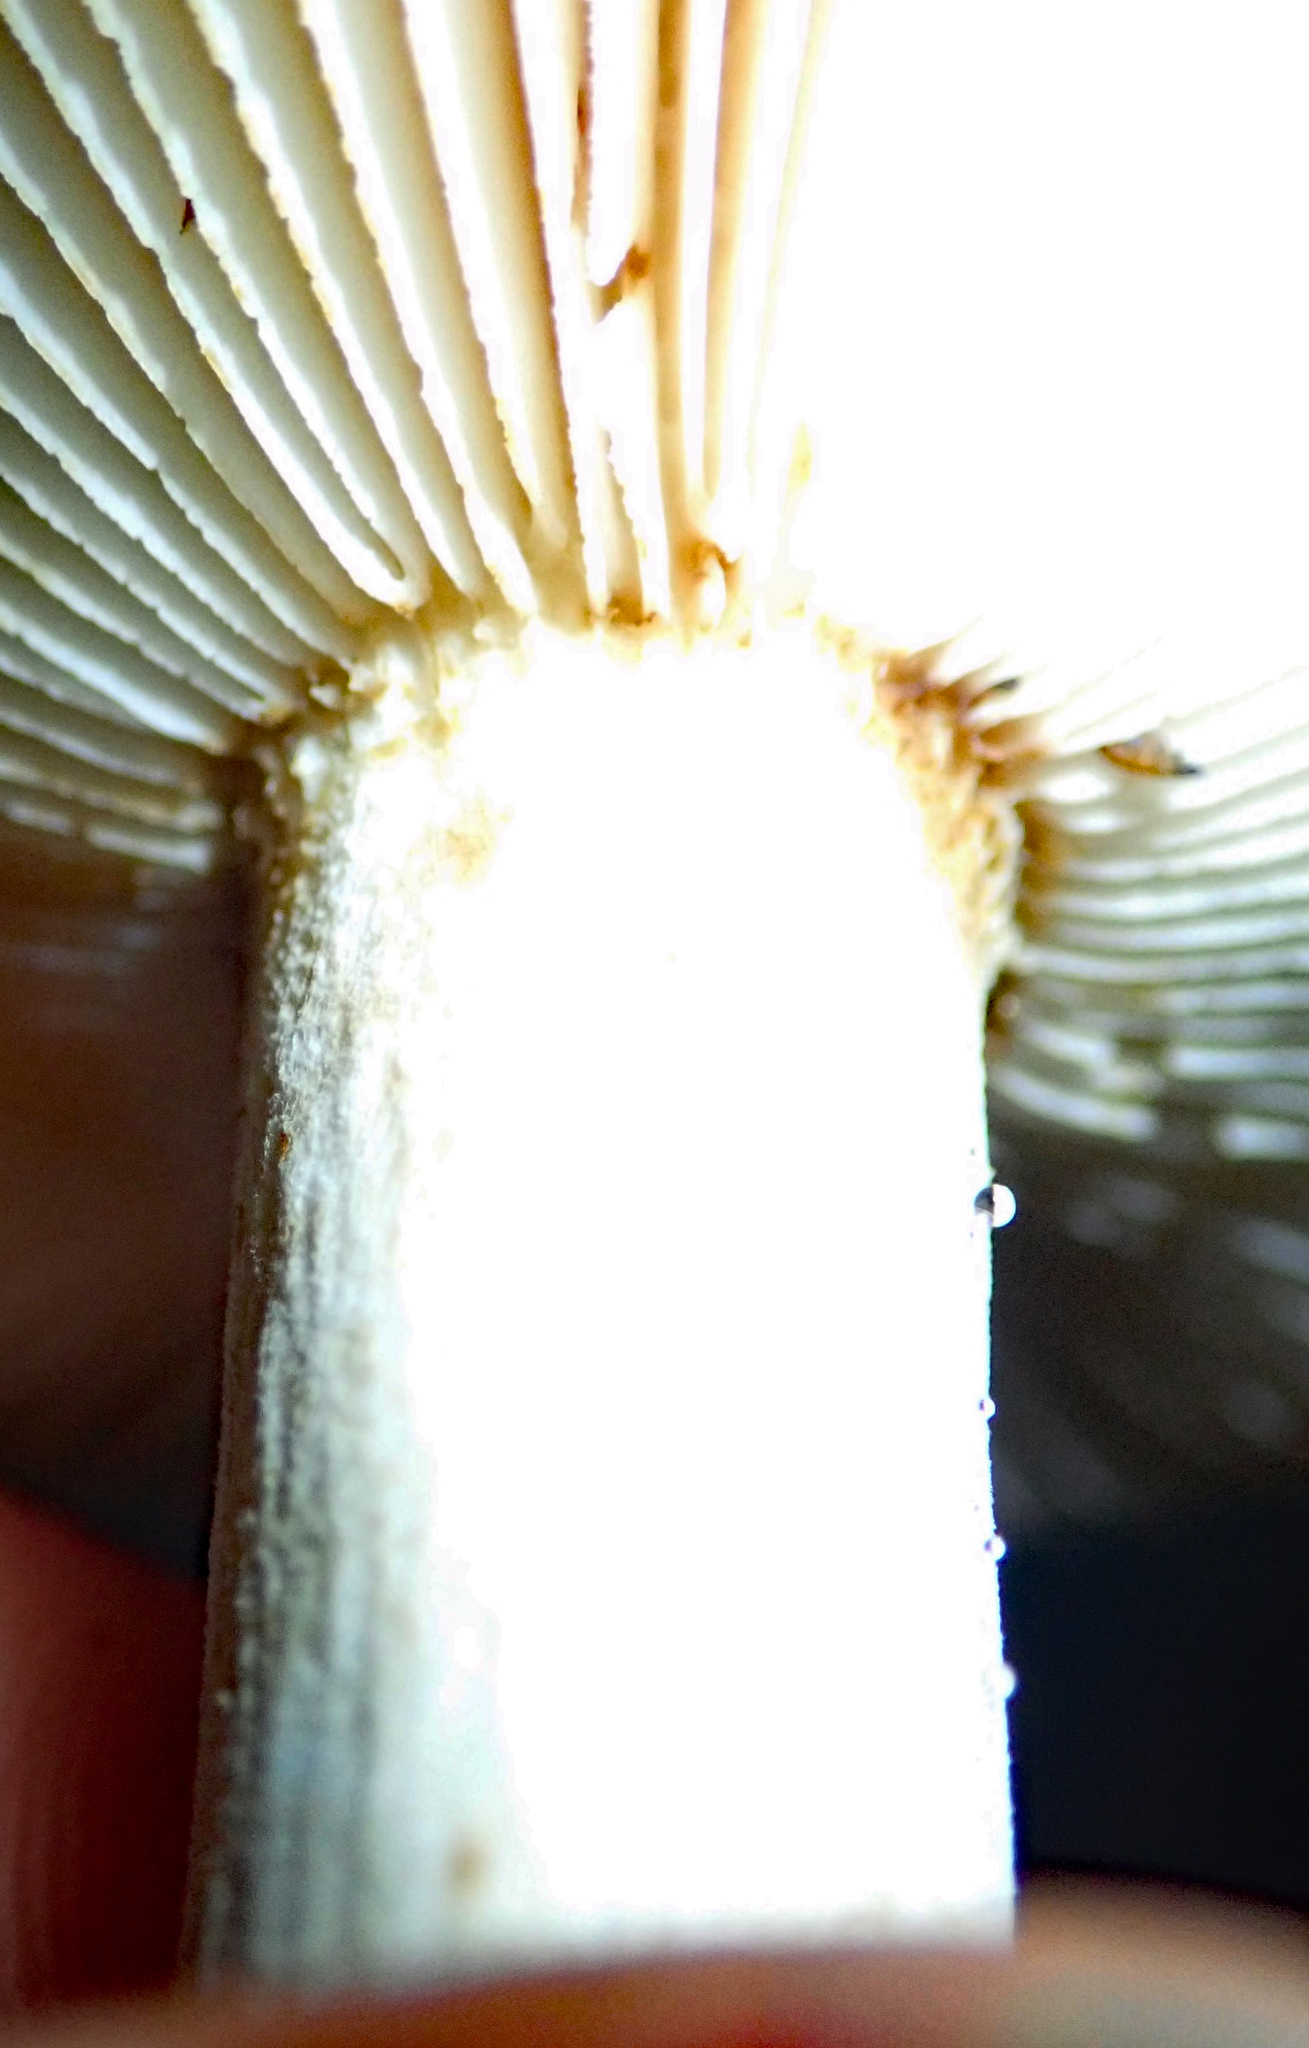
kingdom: Fungi
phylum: Basidiomycota
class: Agaricomycetes
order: Russulales
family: Russulaceae
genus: Russula
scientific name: Russula acrolamellata
